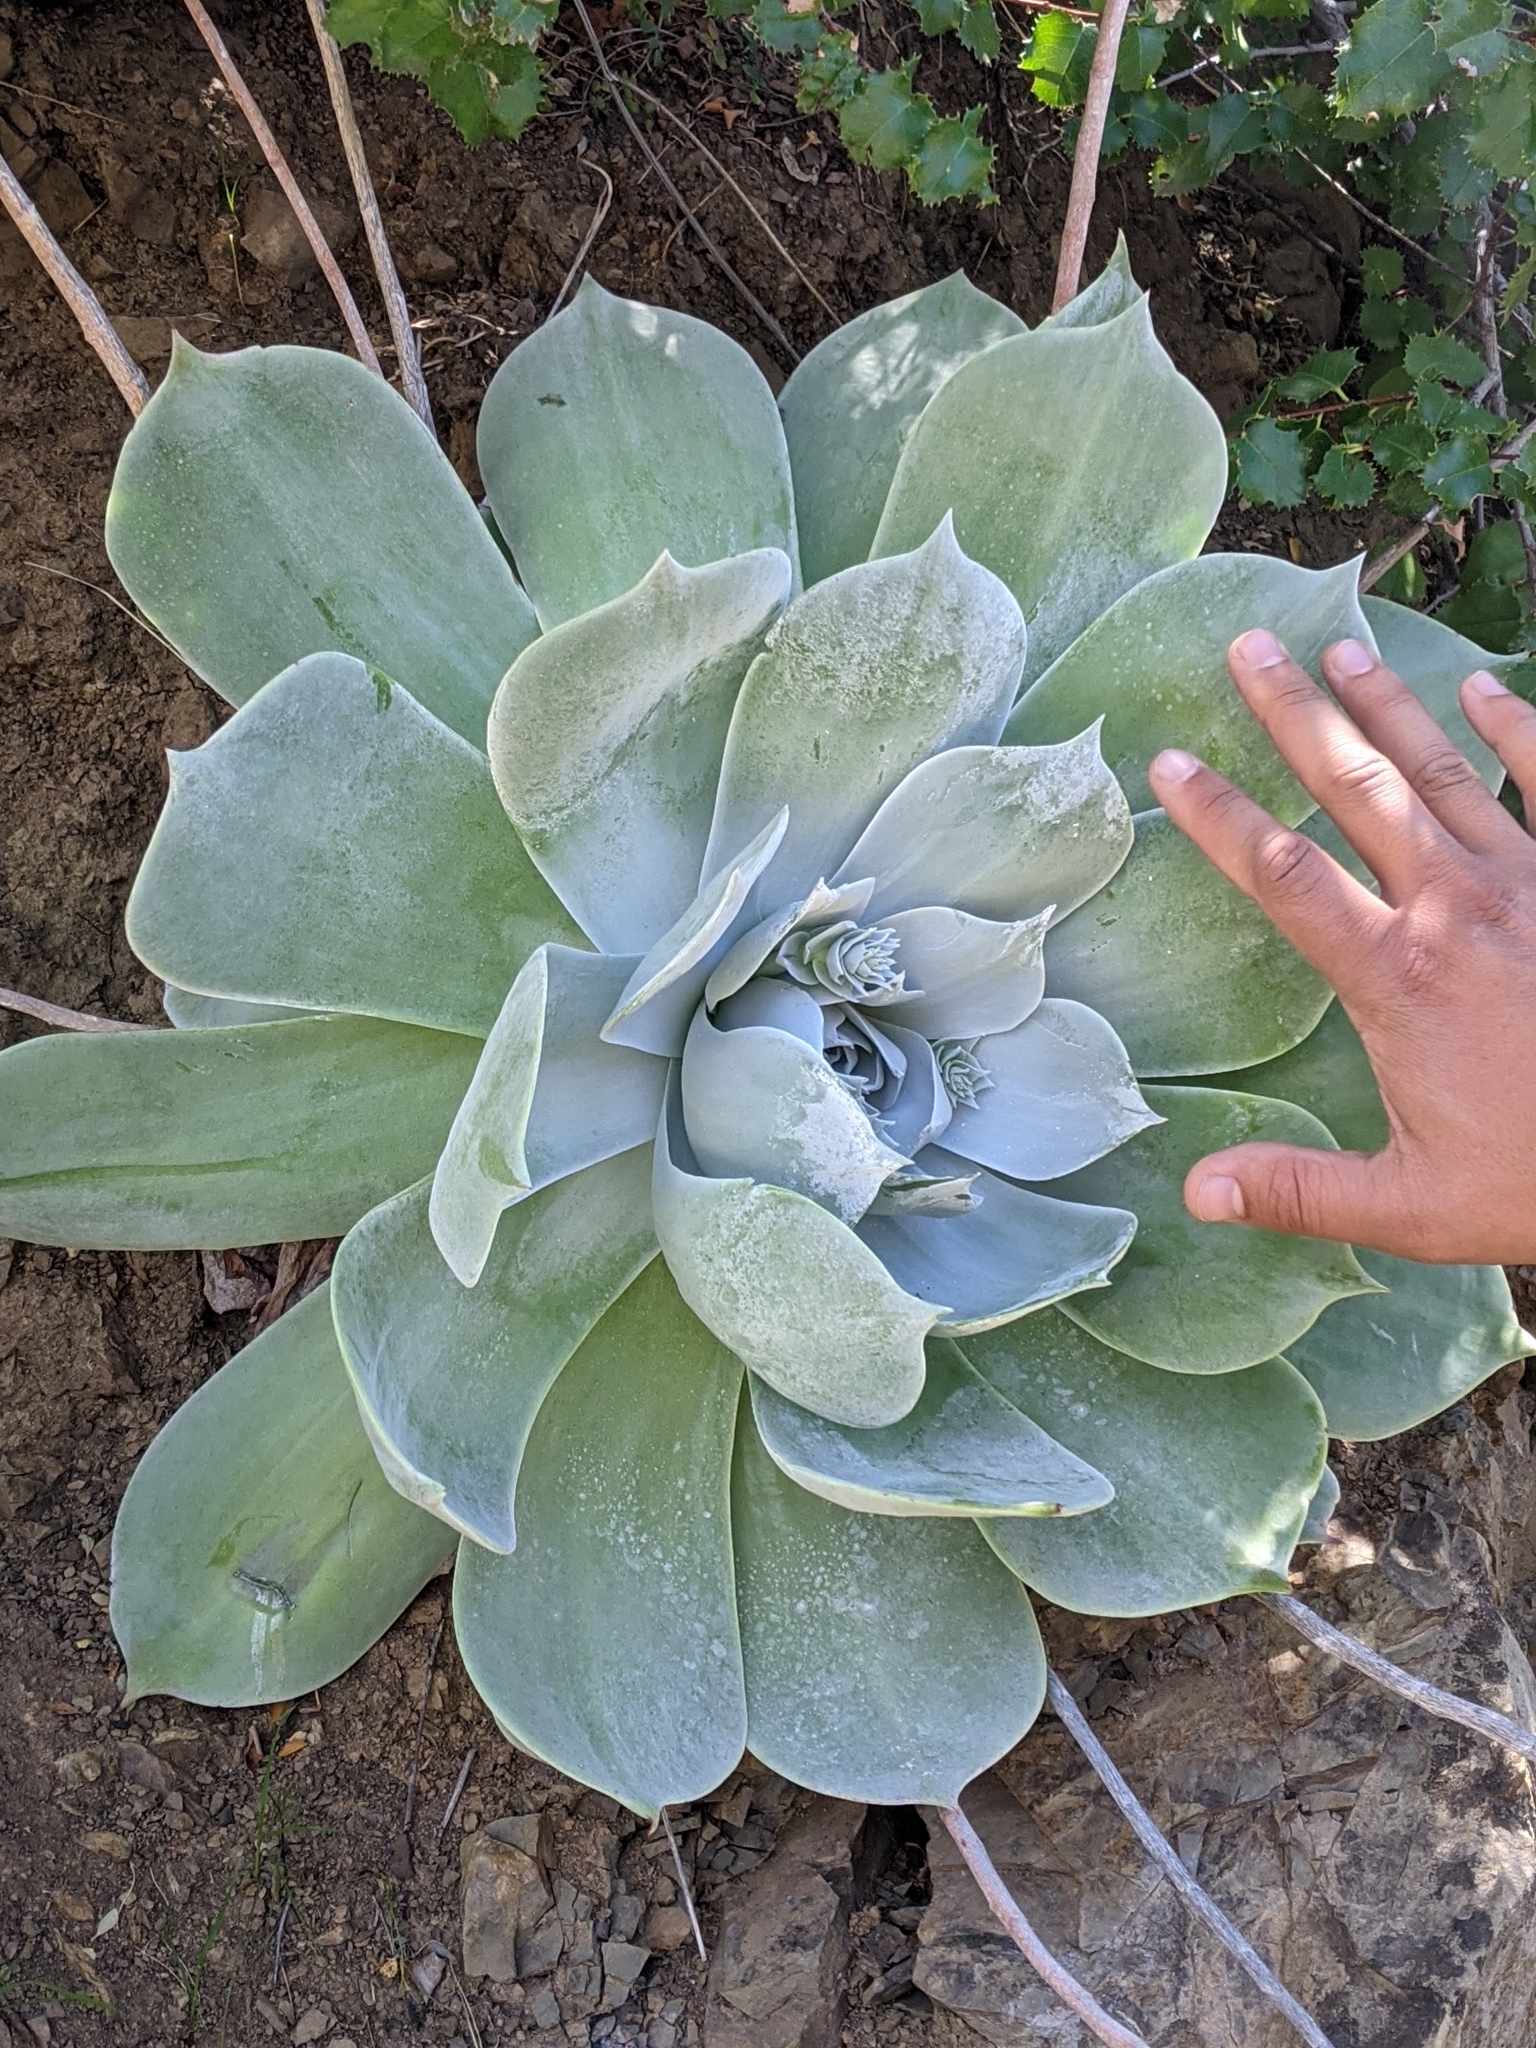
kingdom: Plantae
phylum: Tracheophyta
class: Magnoliopsida
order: Saxifragales
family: Crassulaceae
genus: Dudleya
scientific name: Dudleya pulverulenta
